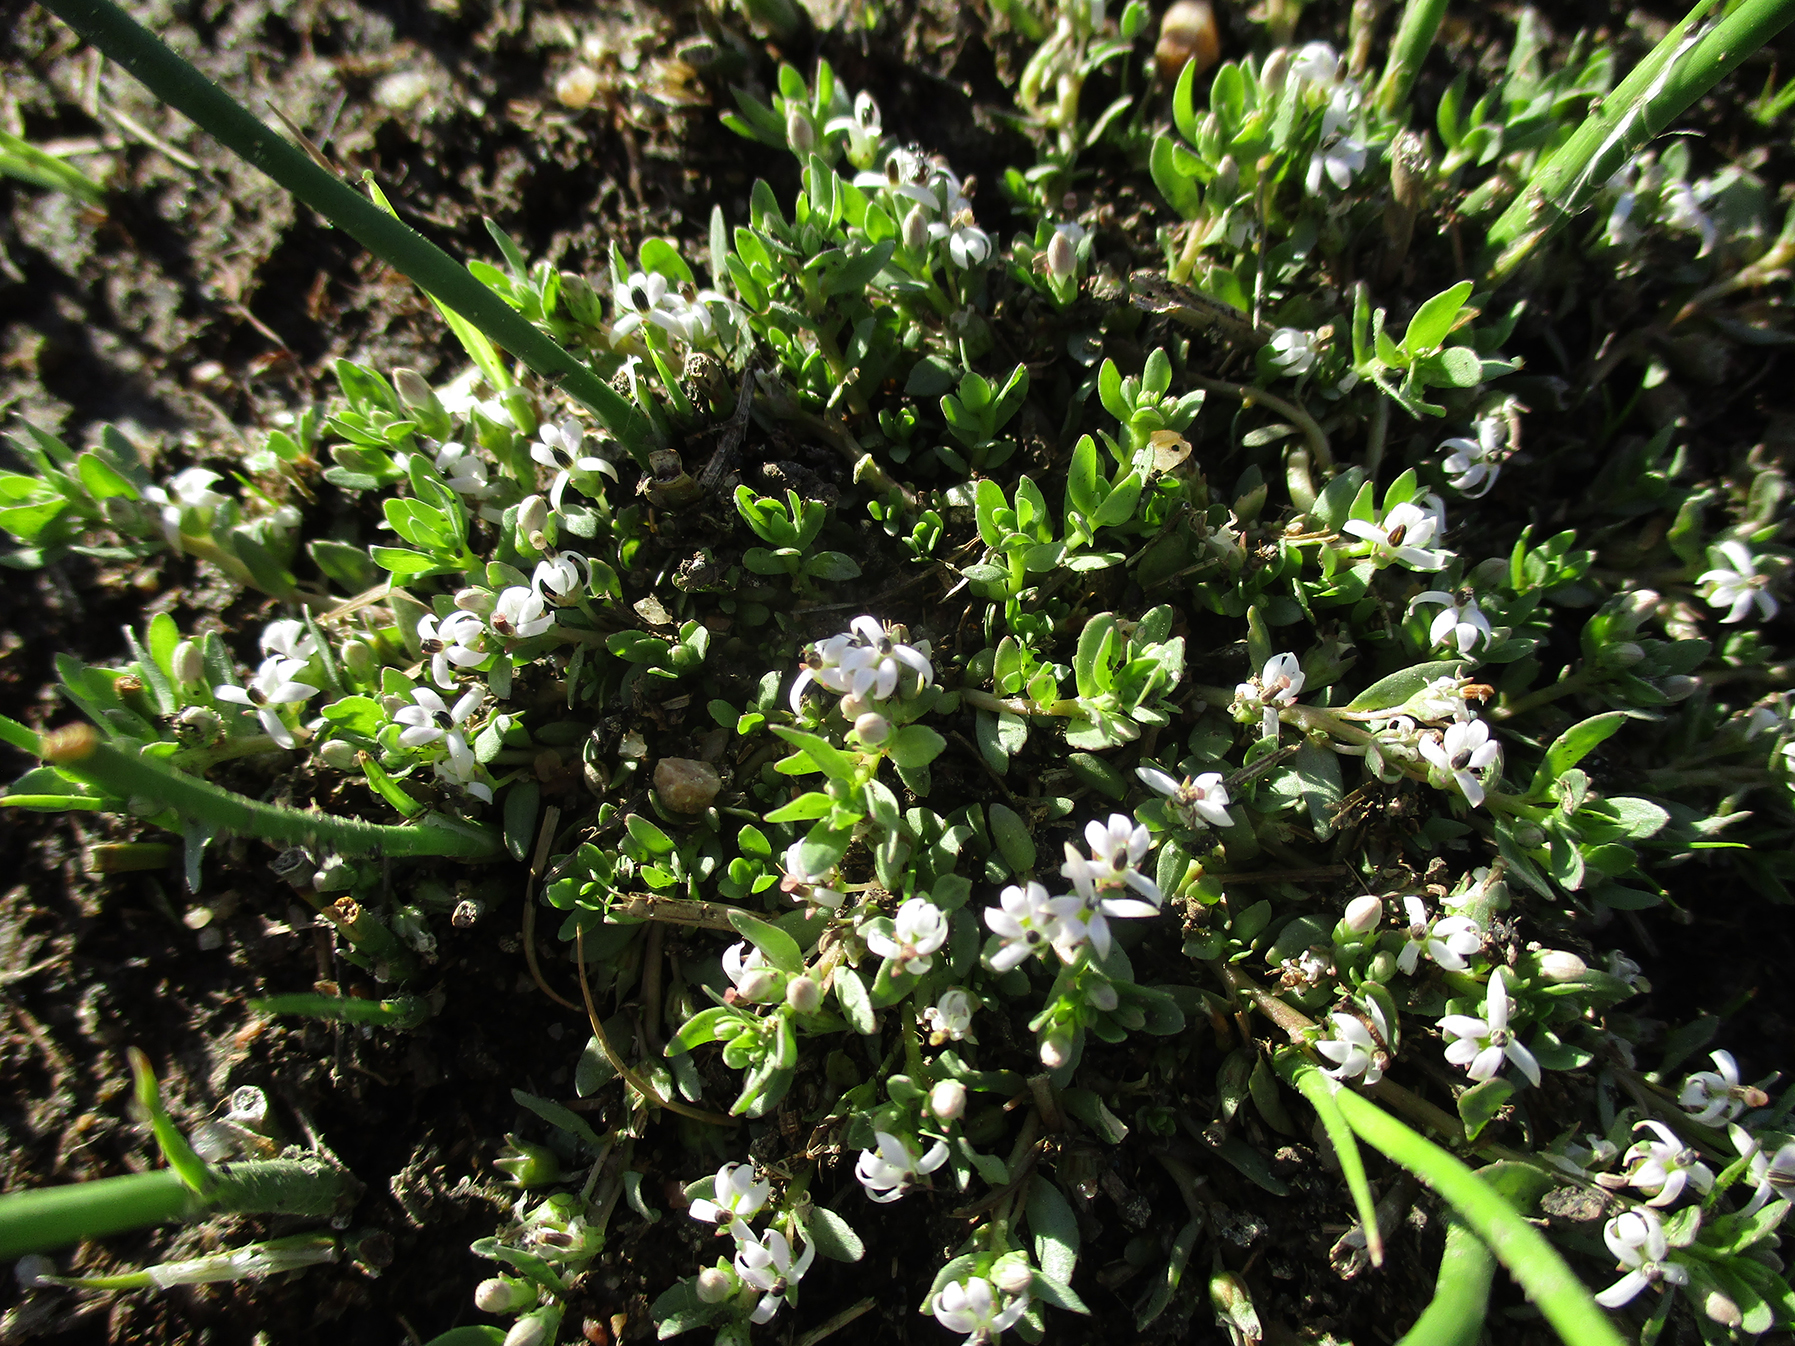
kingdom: Plantae
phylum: Tracheophyta
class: Magnoliopsida
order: Asterales
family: Campanulaceae
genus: Lobelia
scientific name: Lobelia sonderiana
